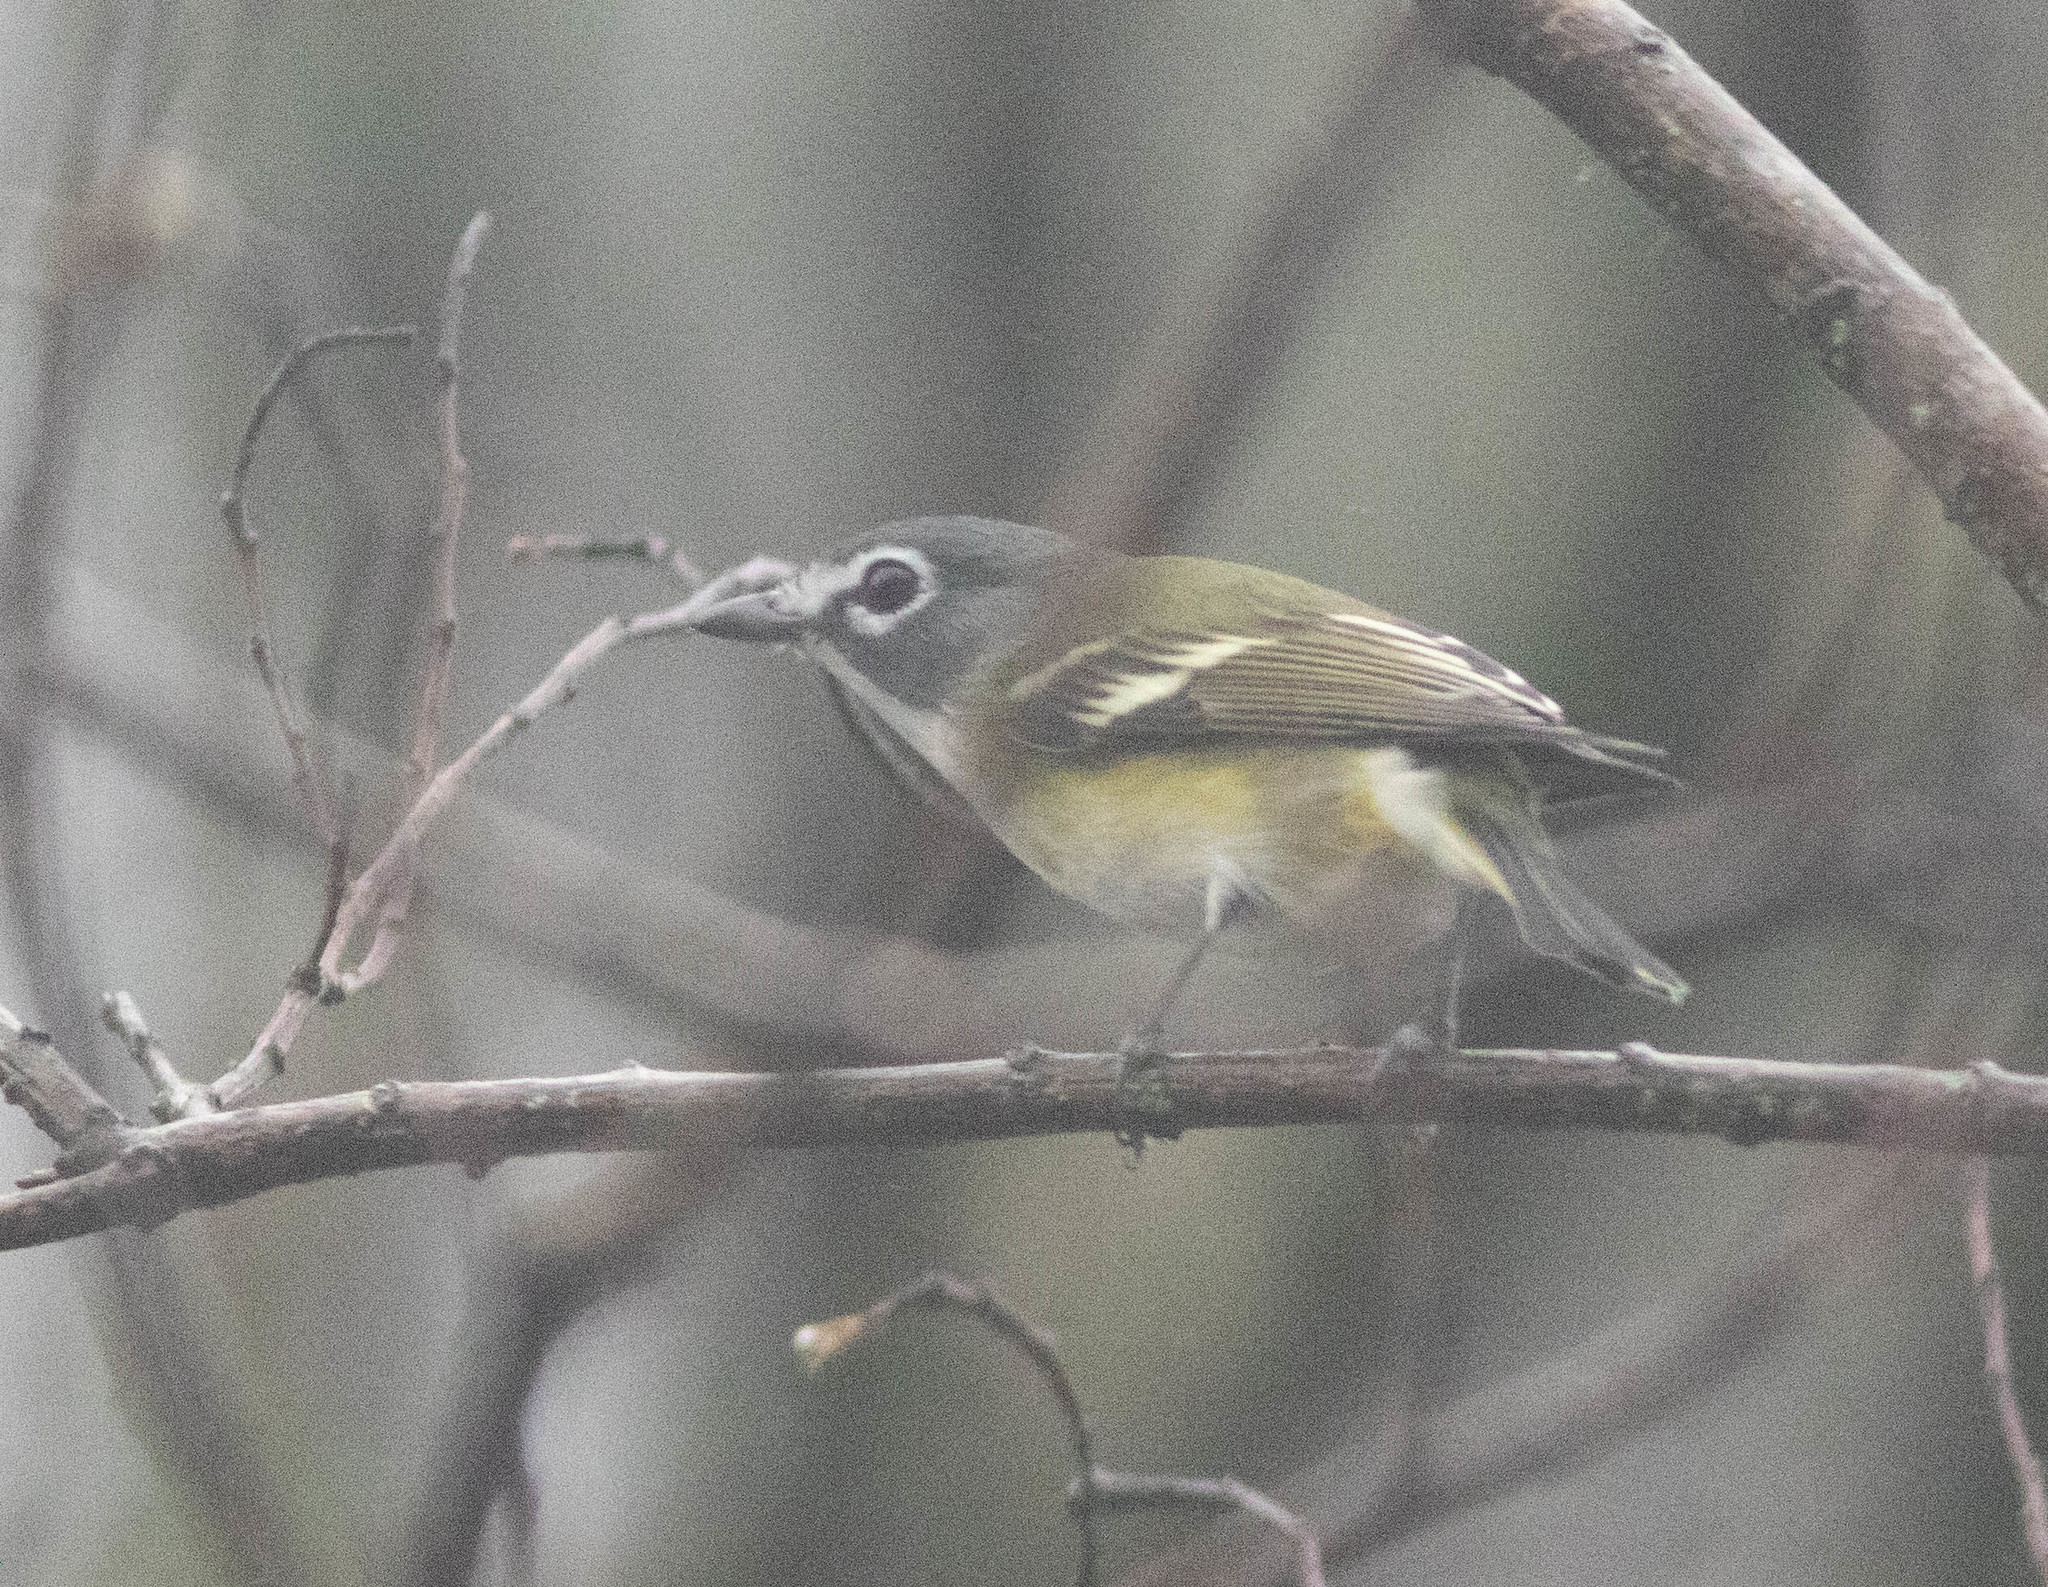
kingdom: Animalia
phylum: Chordata
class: Aves
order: Passeriformes
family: Vireonidae
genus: Vireo
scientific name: Vireo solitarius
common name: Blue-headed vireo
